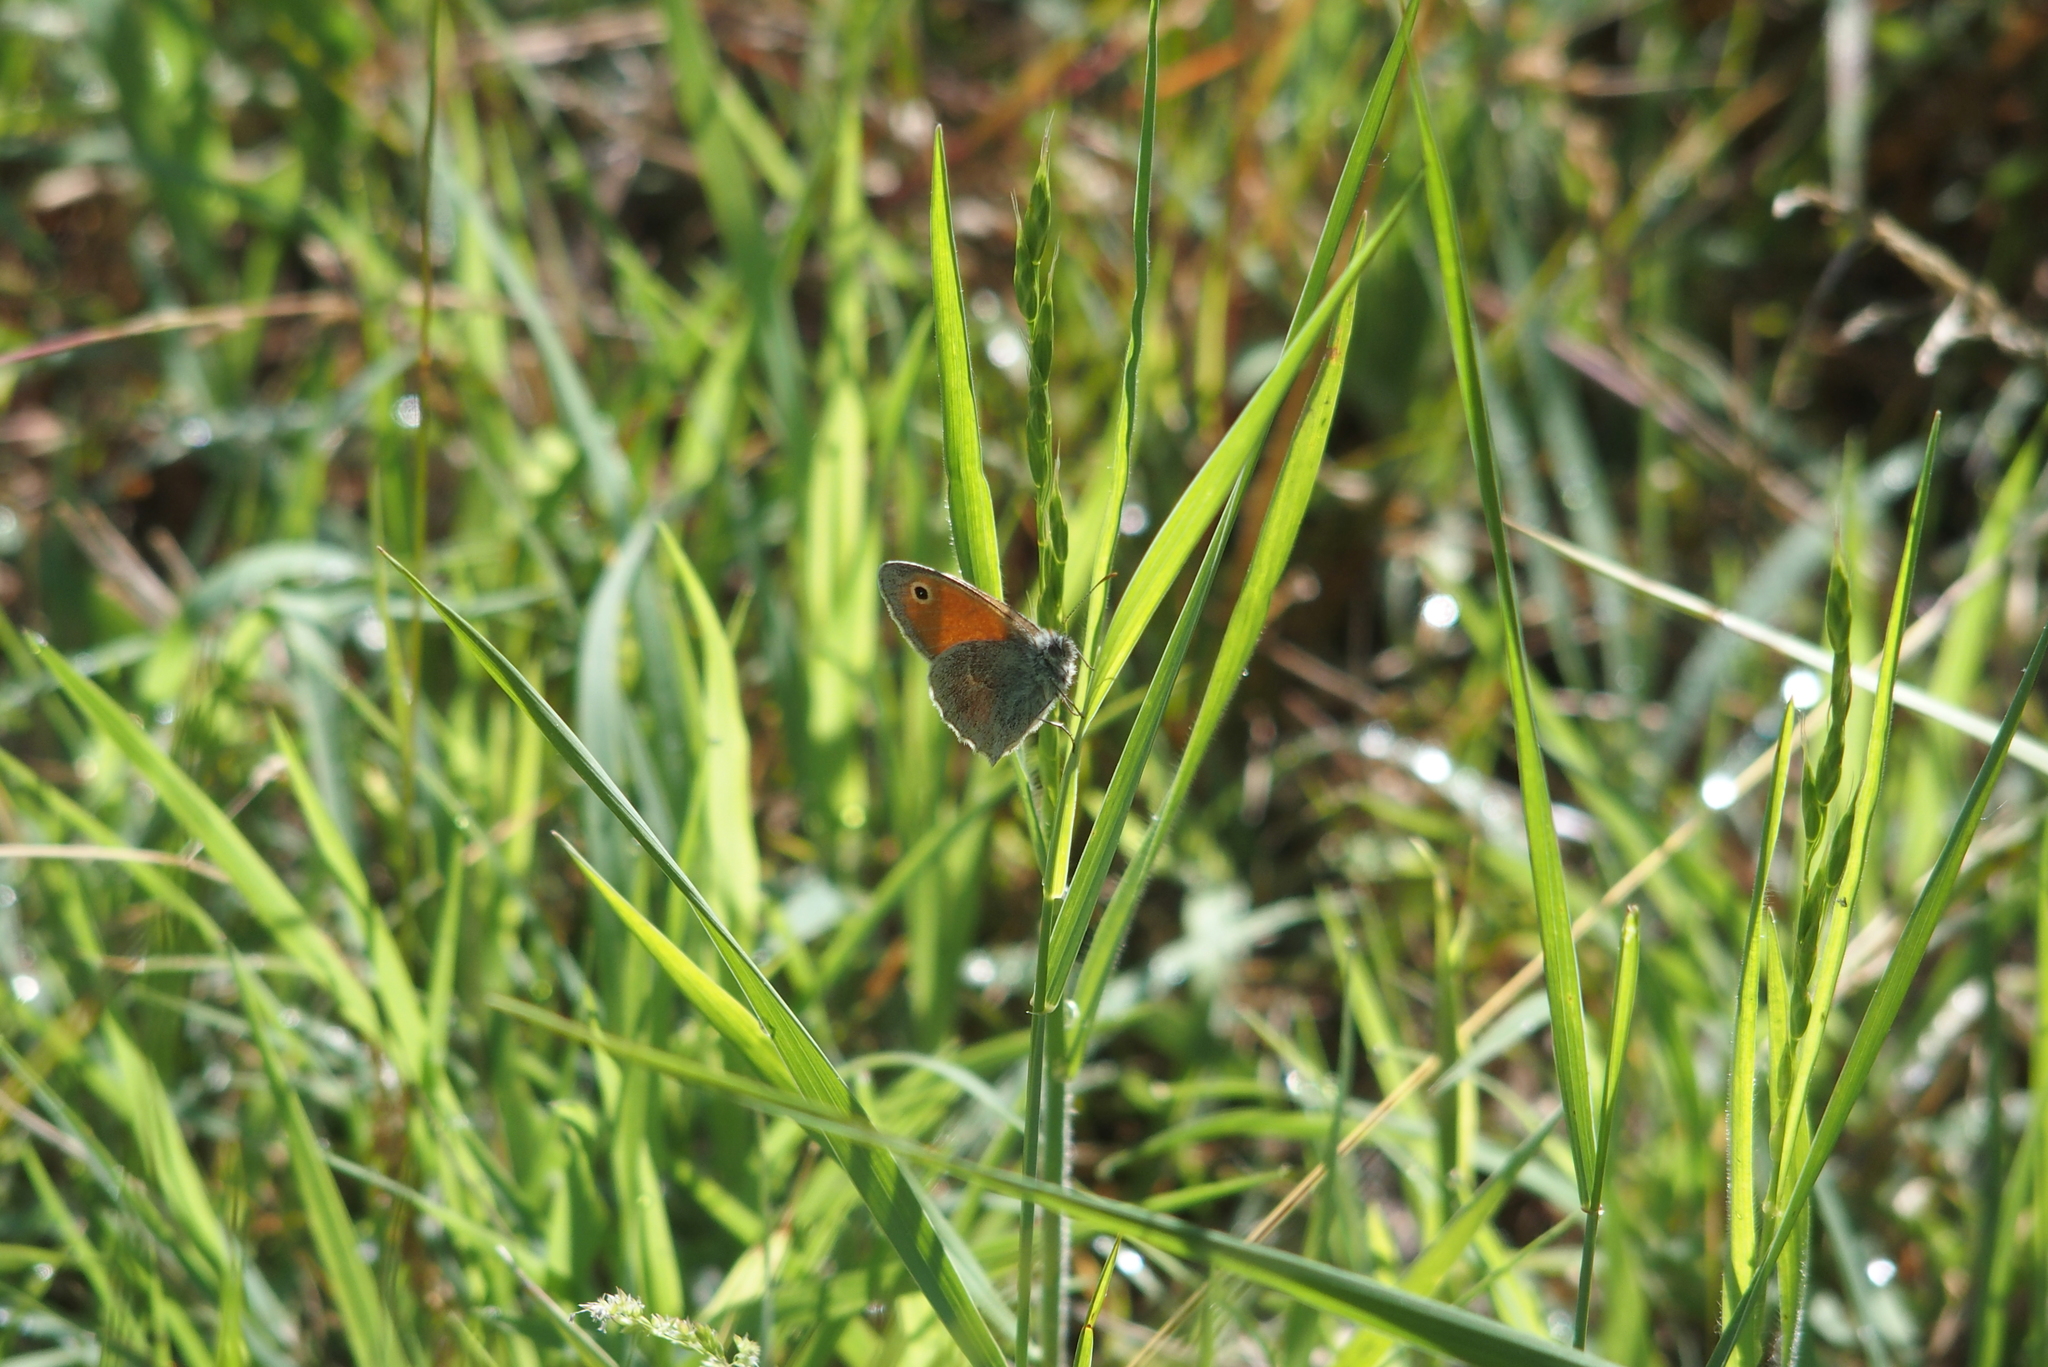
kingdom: Animalia
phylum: Arthropoda
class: Insecta
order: Lepidoptera
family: Nymphalidae
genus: Coenonympha
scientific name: Coenonympha pamphilus
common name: Small heath
